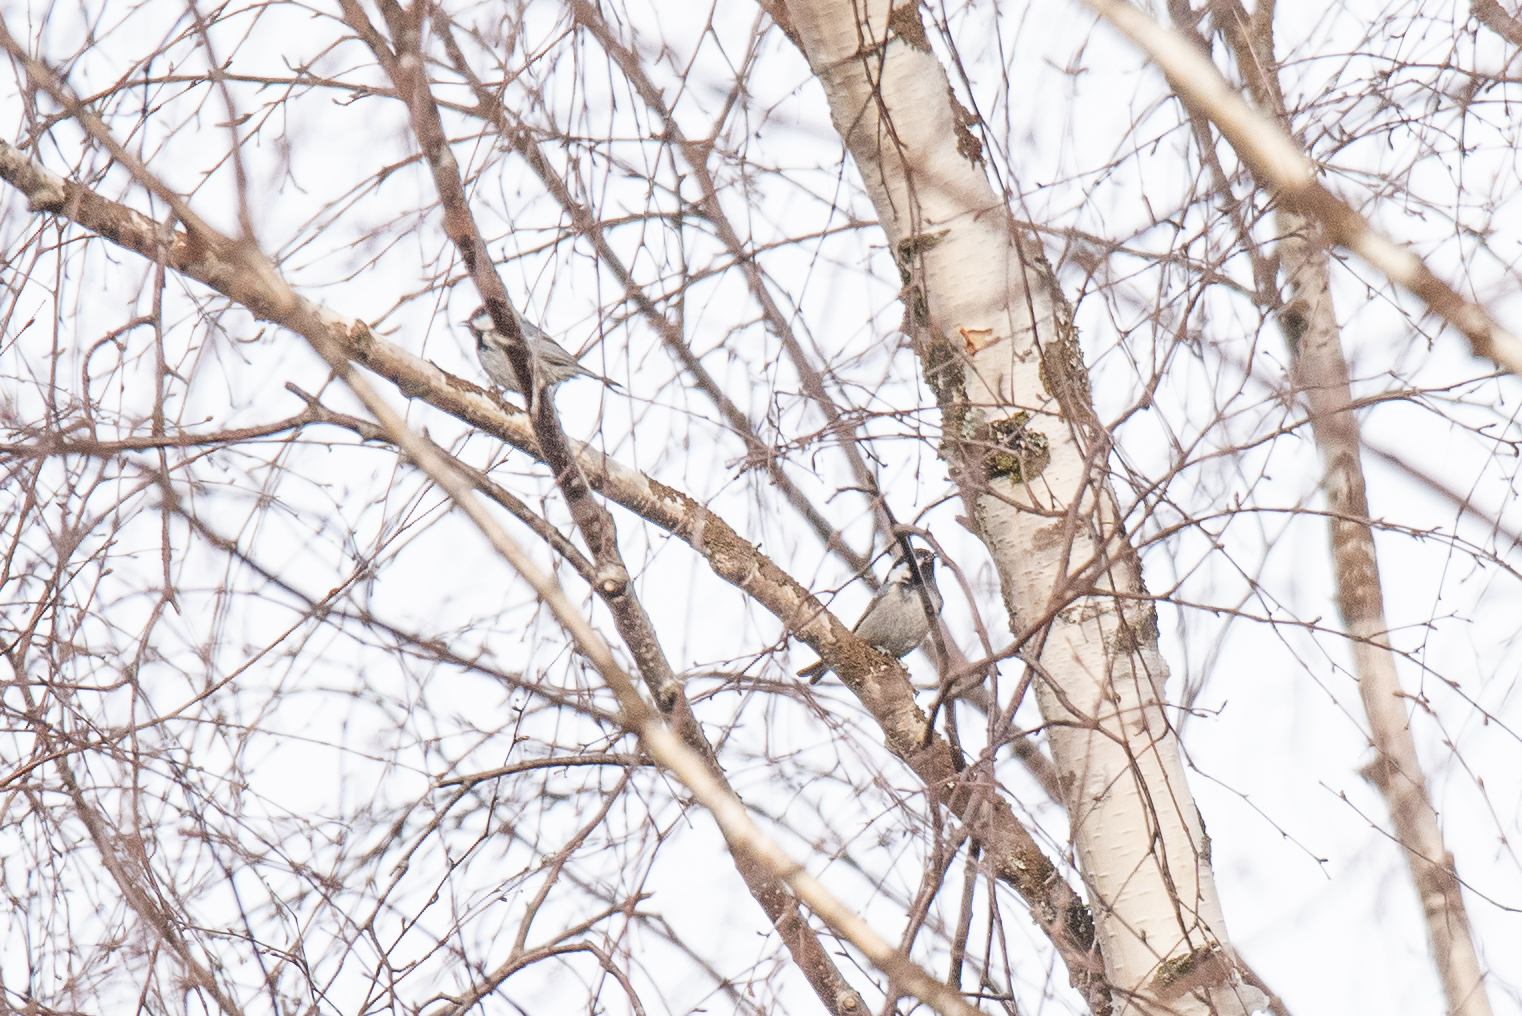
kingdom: Animalia
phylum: Chordata
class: Aves
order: Passeriformes
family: Paridae
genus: Periparus
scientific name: Periparus ater
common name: Coal tit
